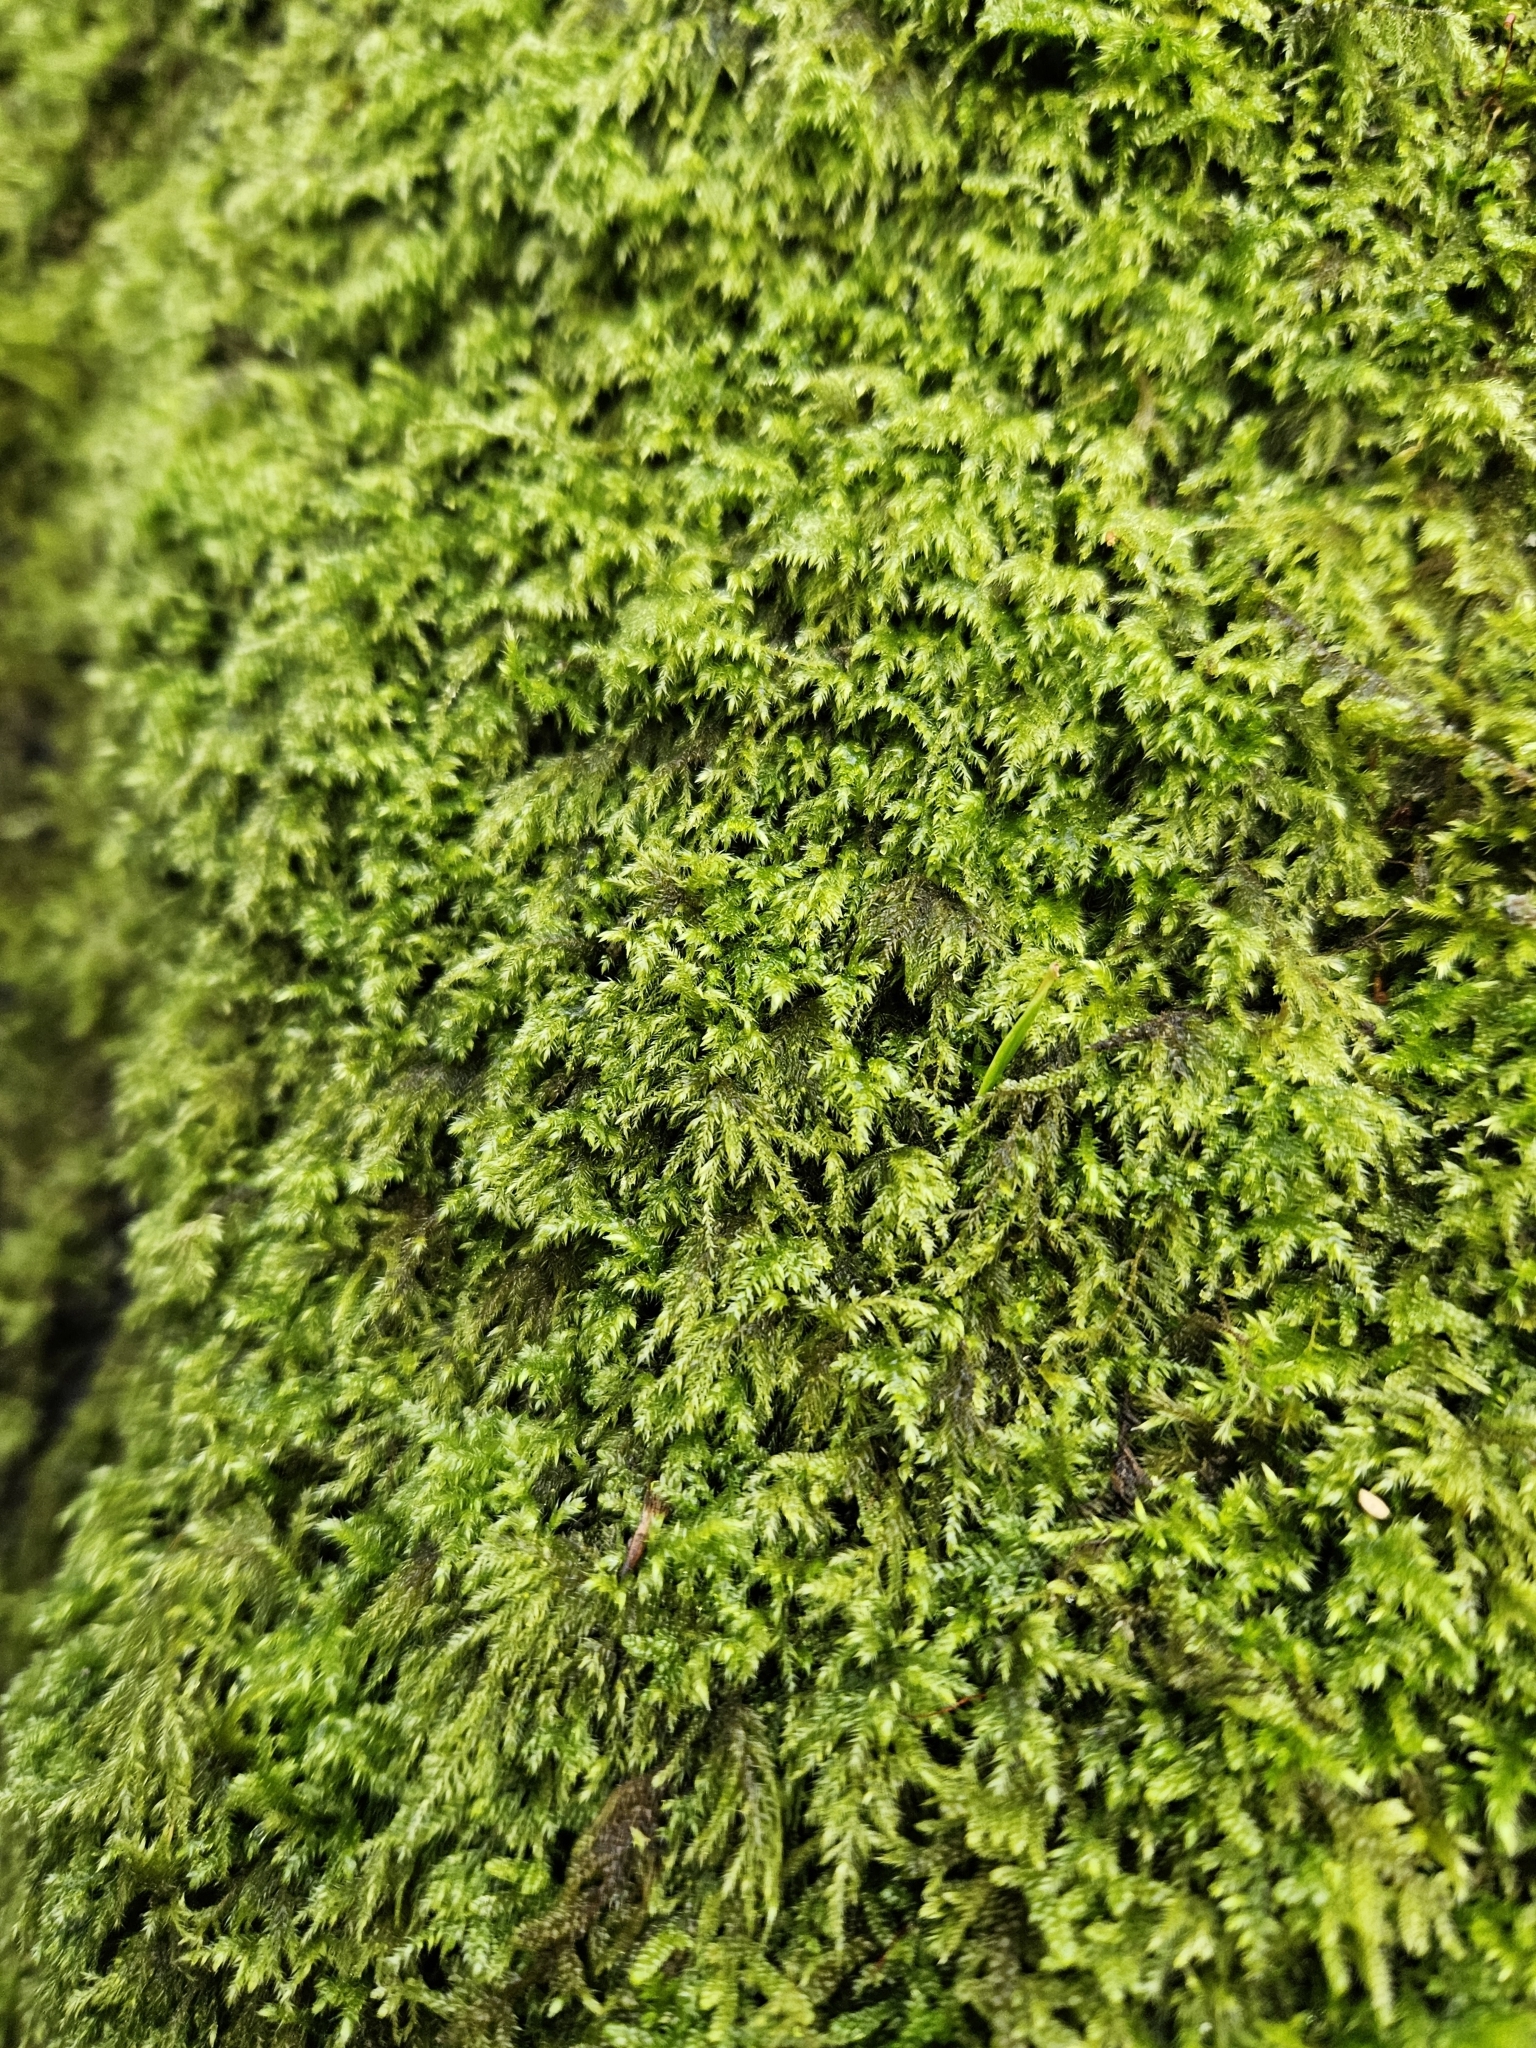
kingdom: Plantae
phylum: Bryophyta
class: Bryopsida
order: Hypnales
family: Lembophyllaceae
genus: Pseudisothecium
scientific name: Pseudisothecium myosuroides
